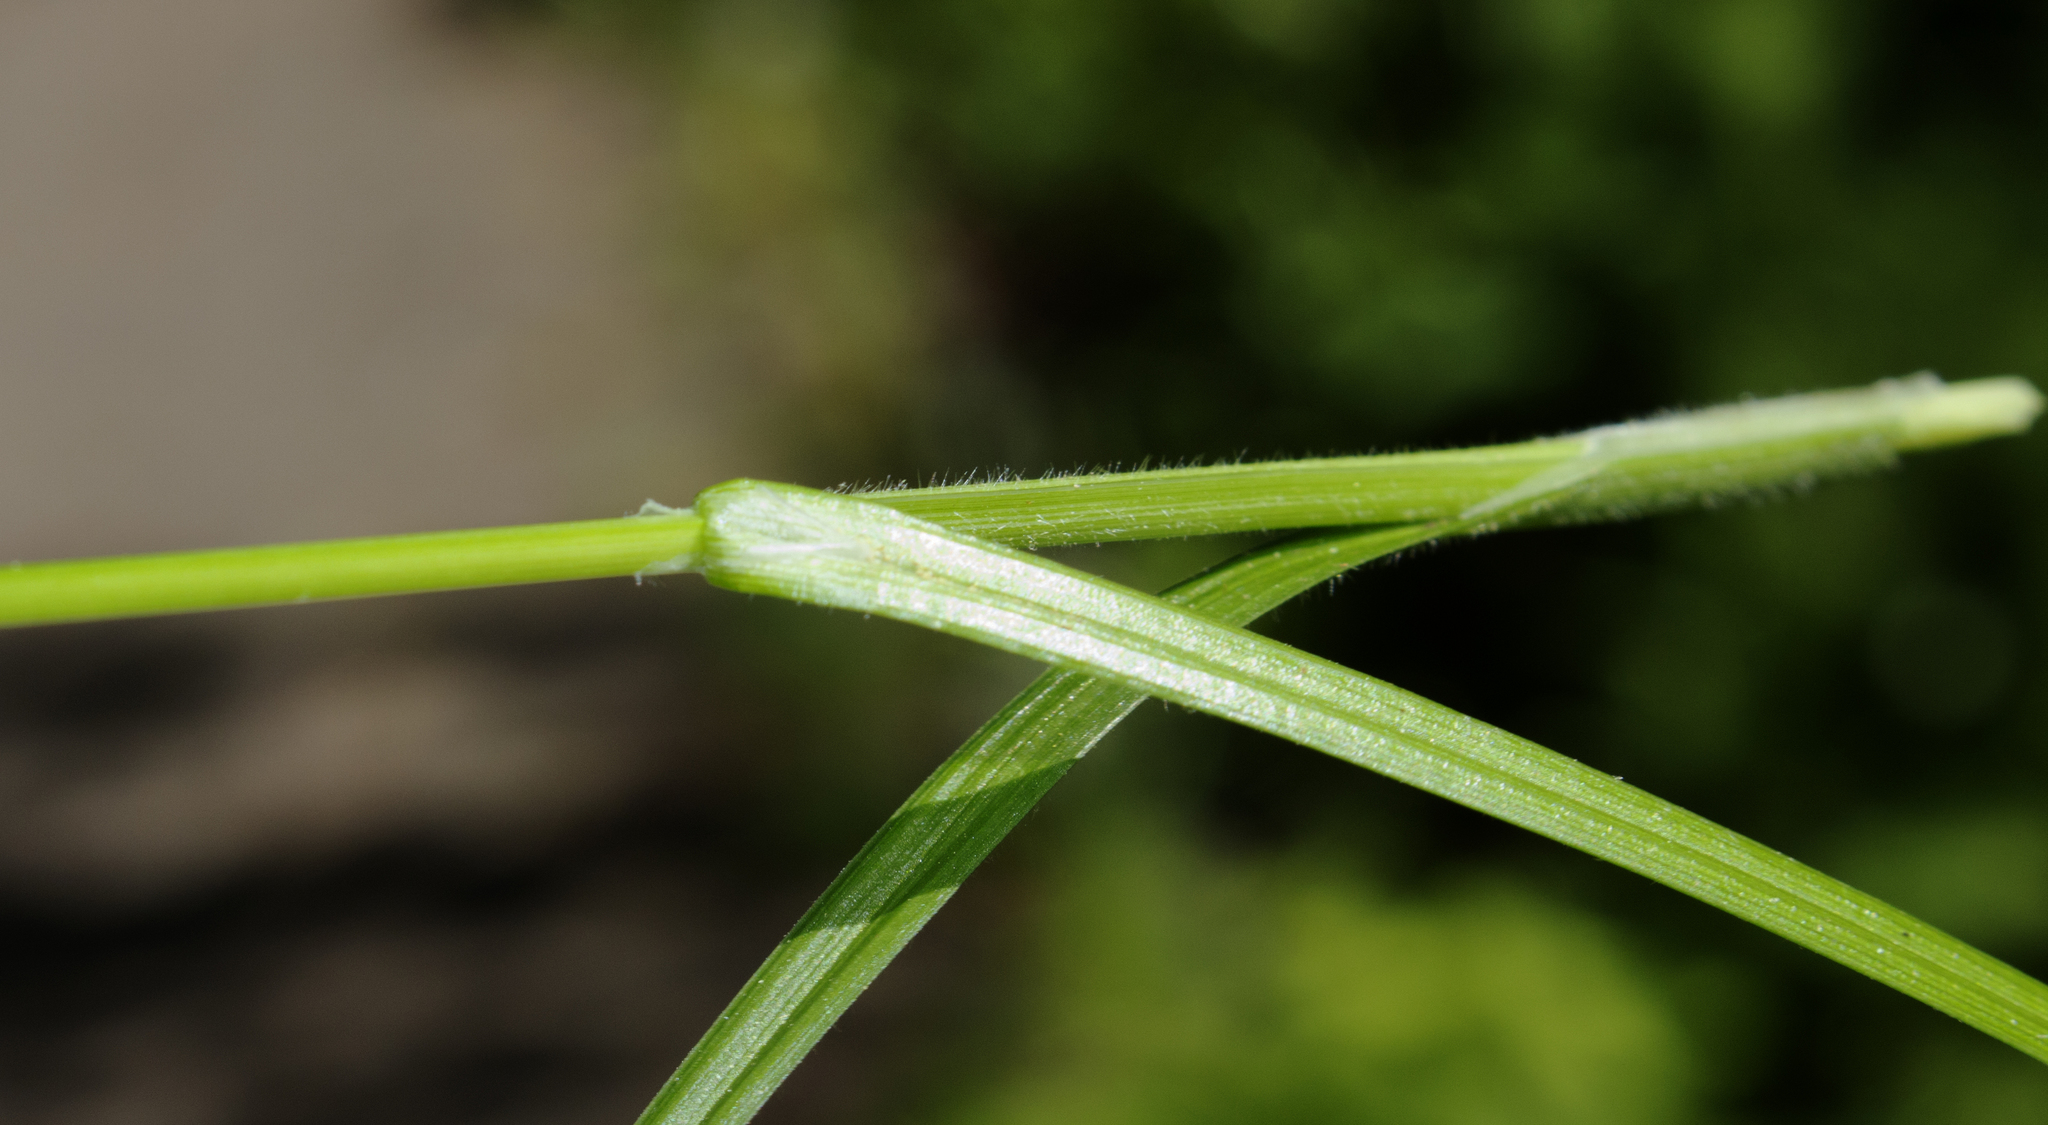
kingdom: Plantae
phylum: Tracheophyta
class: Liliopsida
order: Poales
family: Cyperaceae
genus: Carex
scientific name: Carex pallescens
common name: Pale sedge
